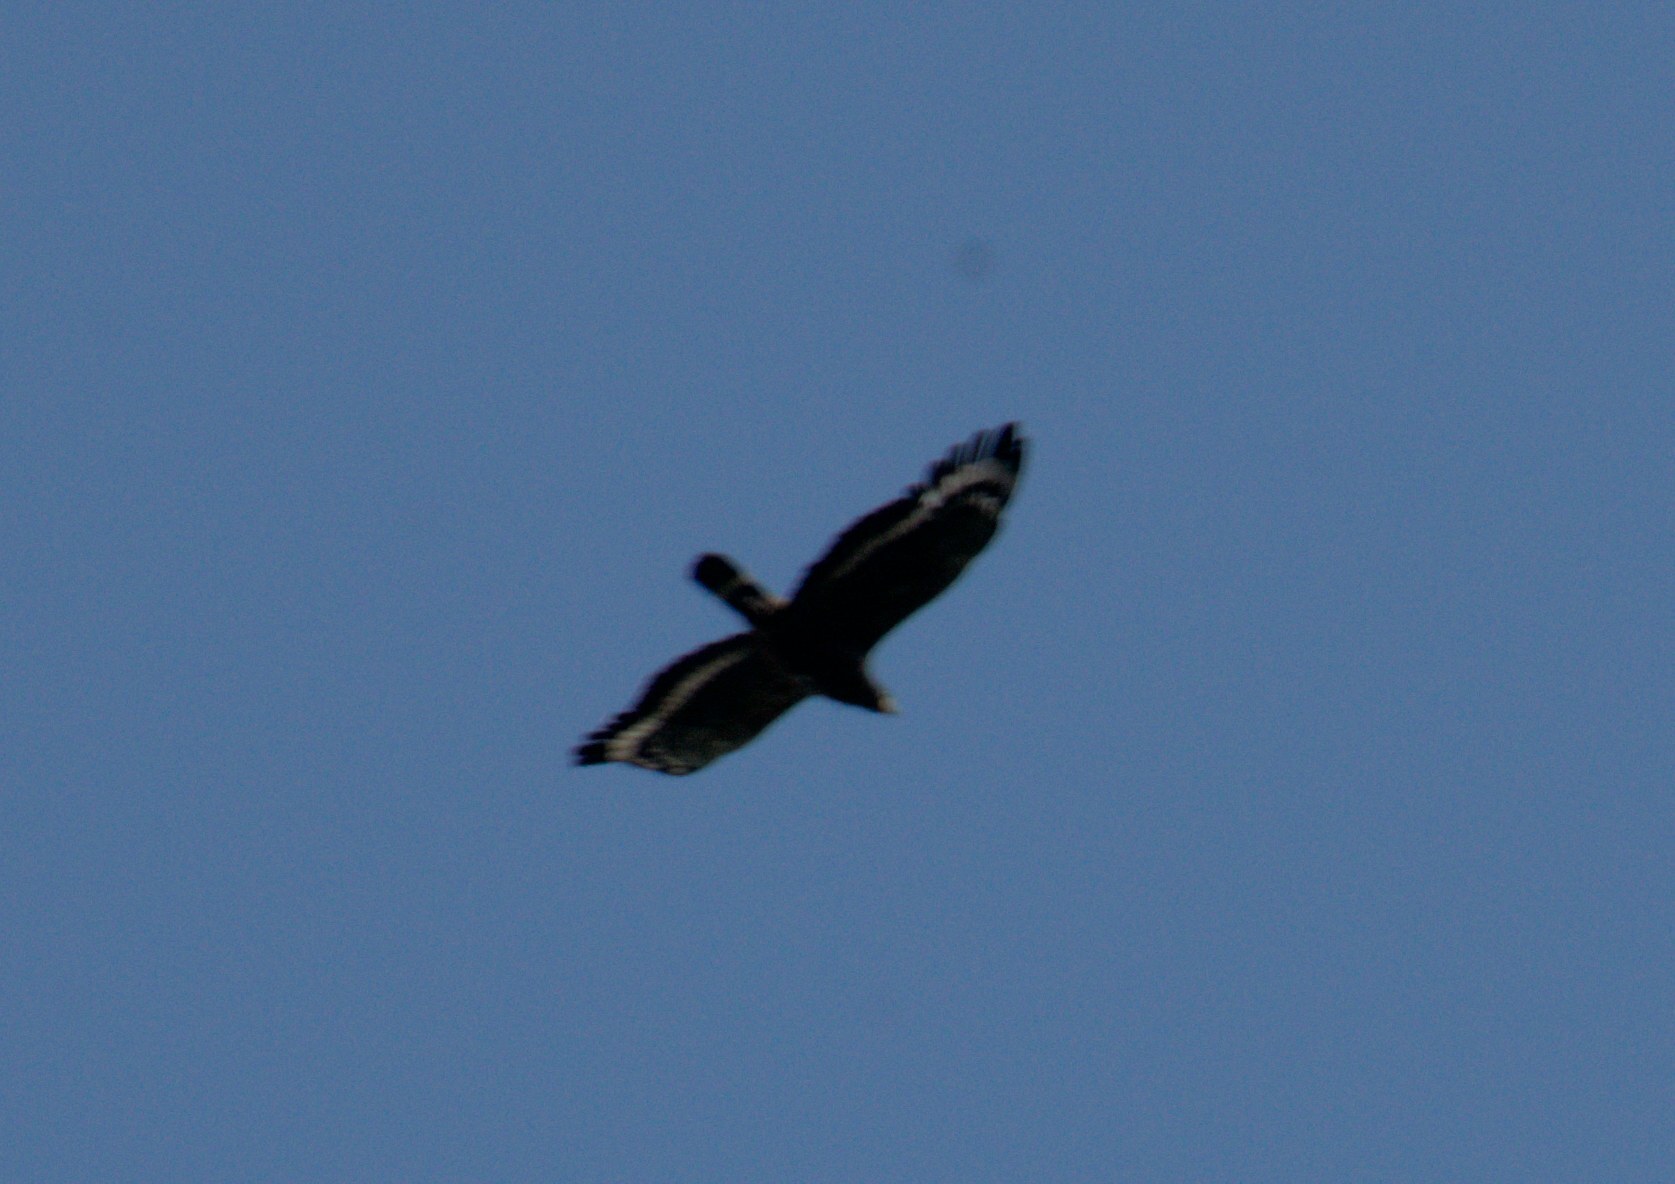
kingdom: Animalia
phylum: Chordata
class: Aves
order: Accipitriformes
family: Accipitridae
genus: Spilornis
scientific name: Spilornis cheela
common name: Crested serpent eagle
